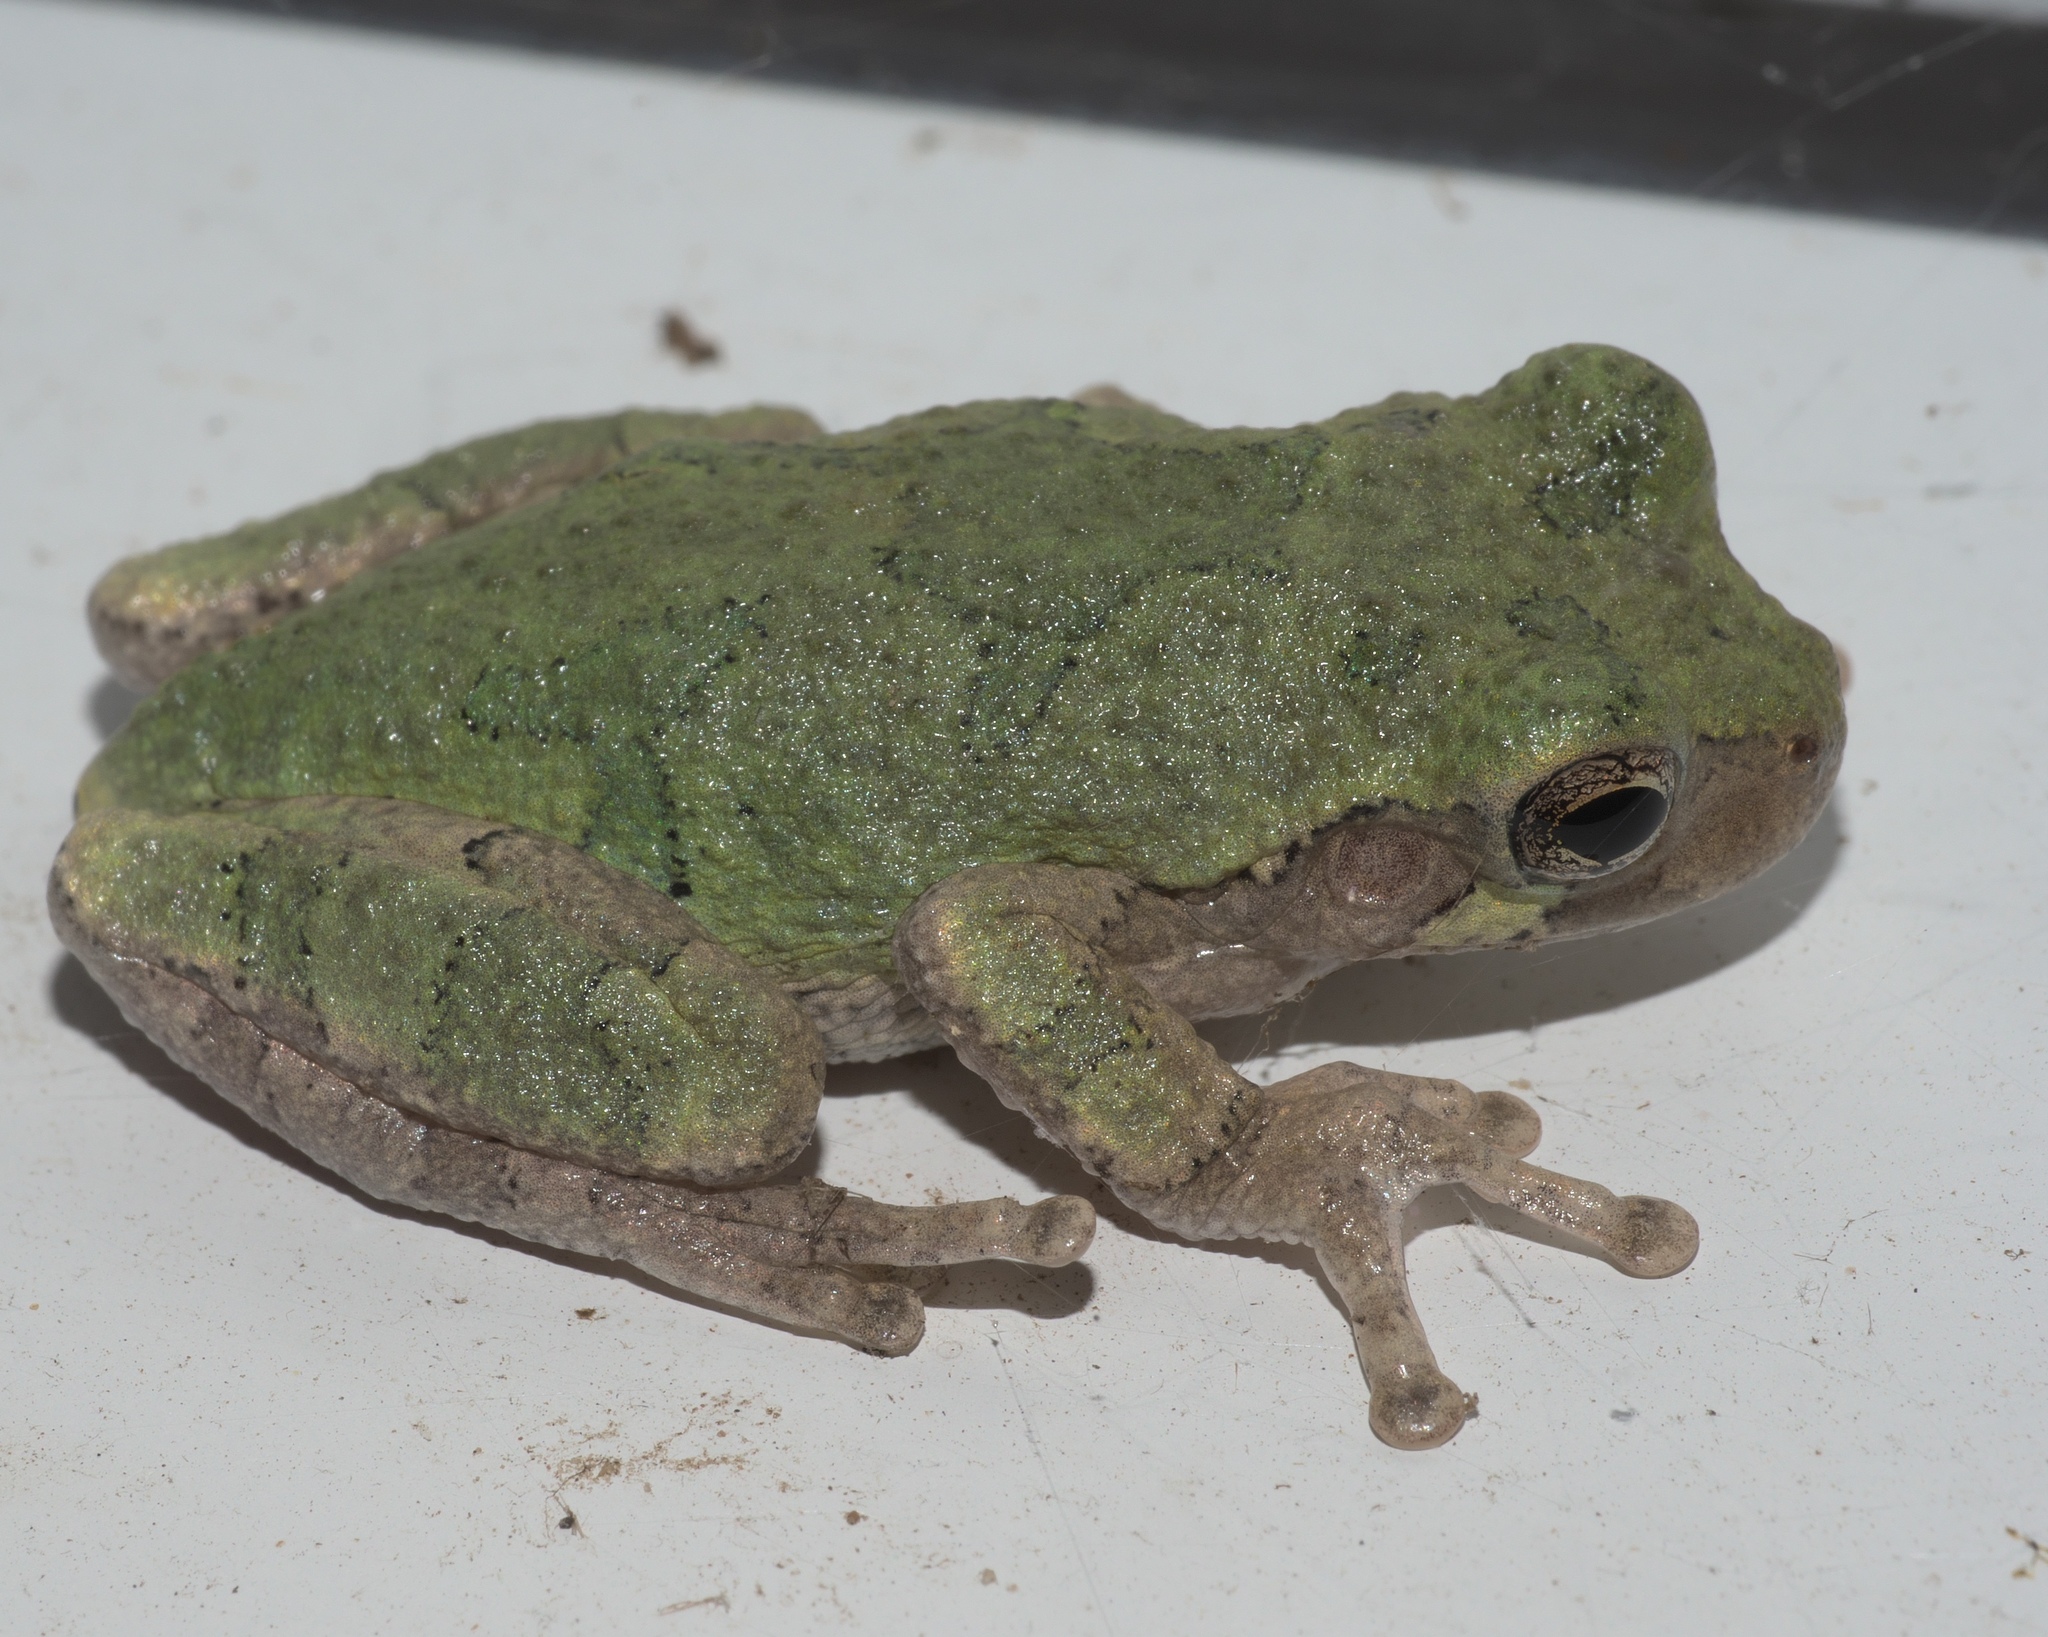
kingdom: Animalia
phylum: Chordata
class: Amphibia
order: Anura
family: Hylidae
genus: Hyla
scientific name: Hyla
